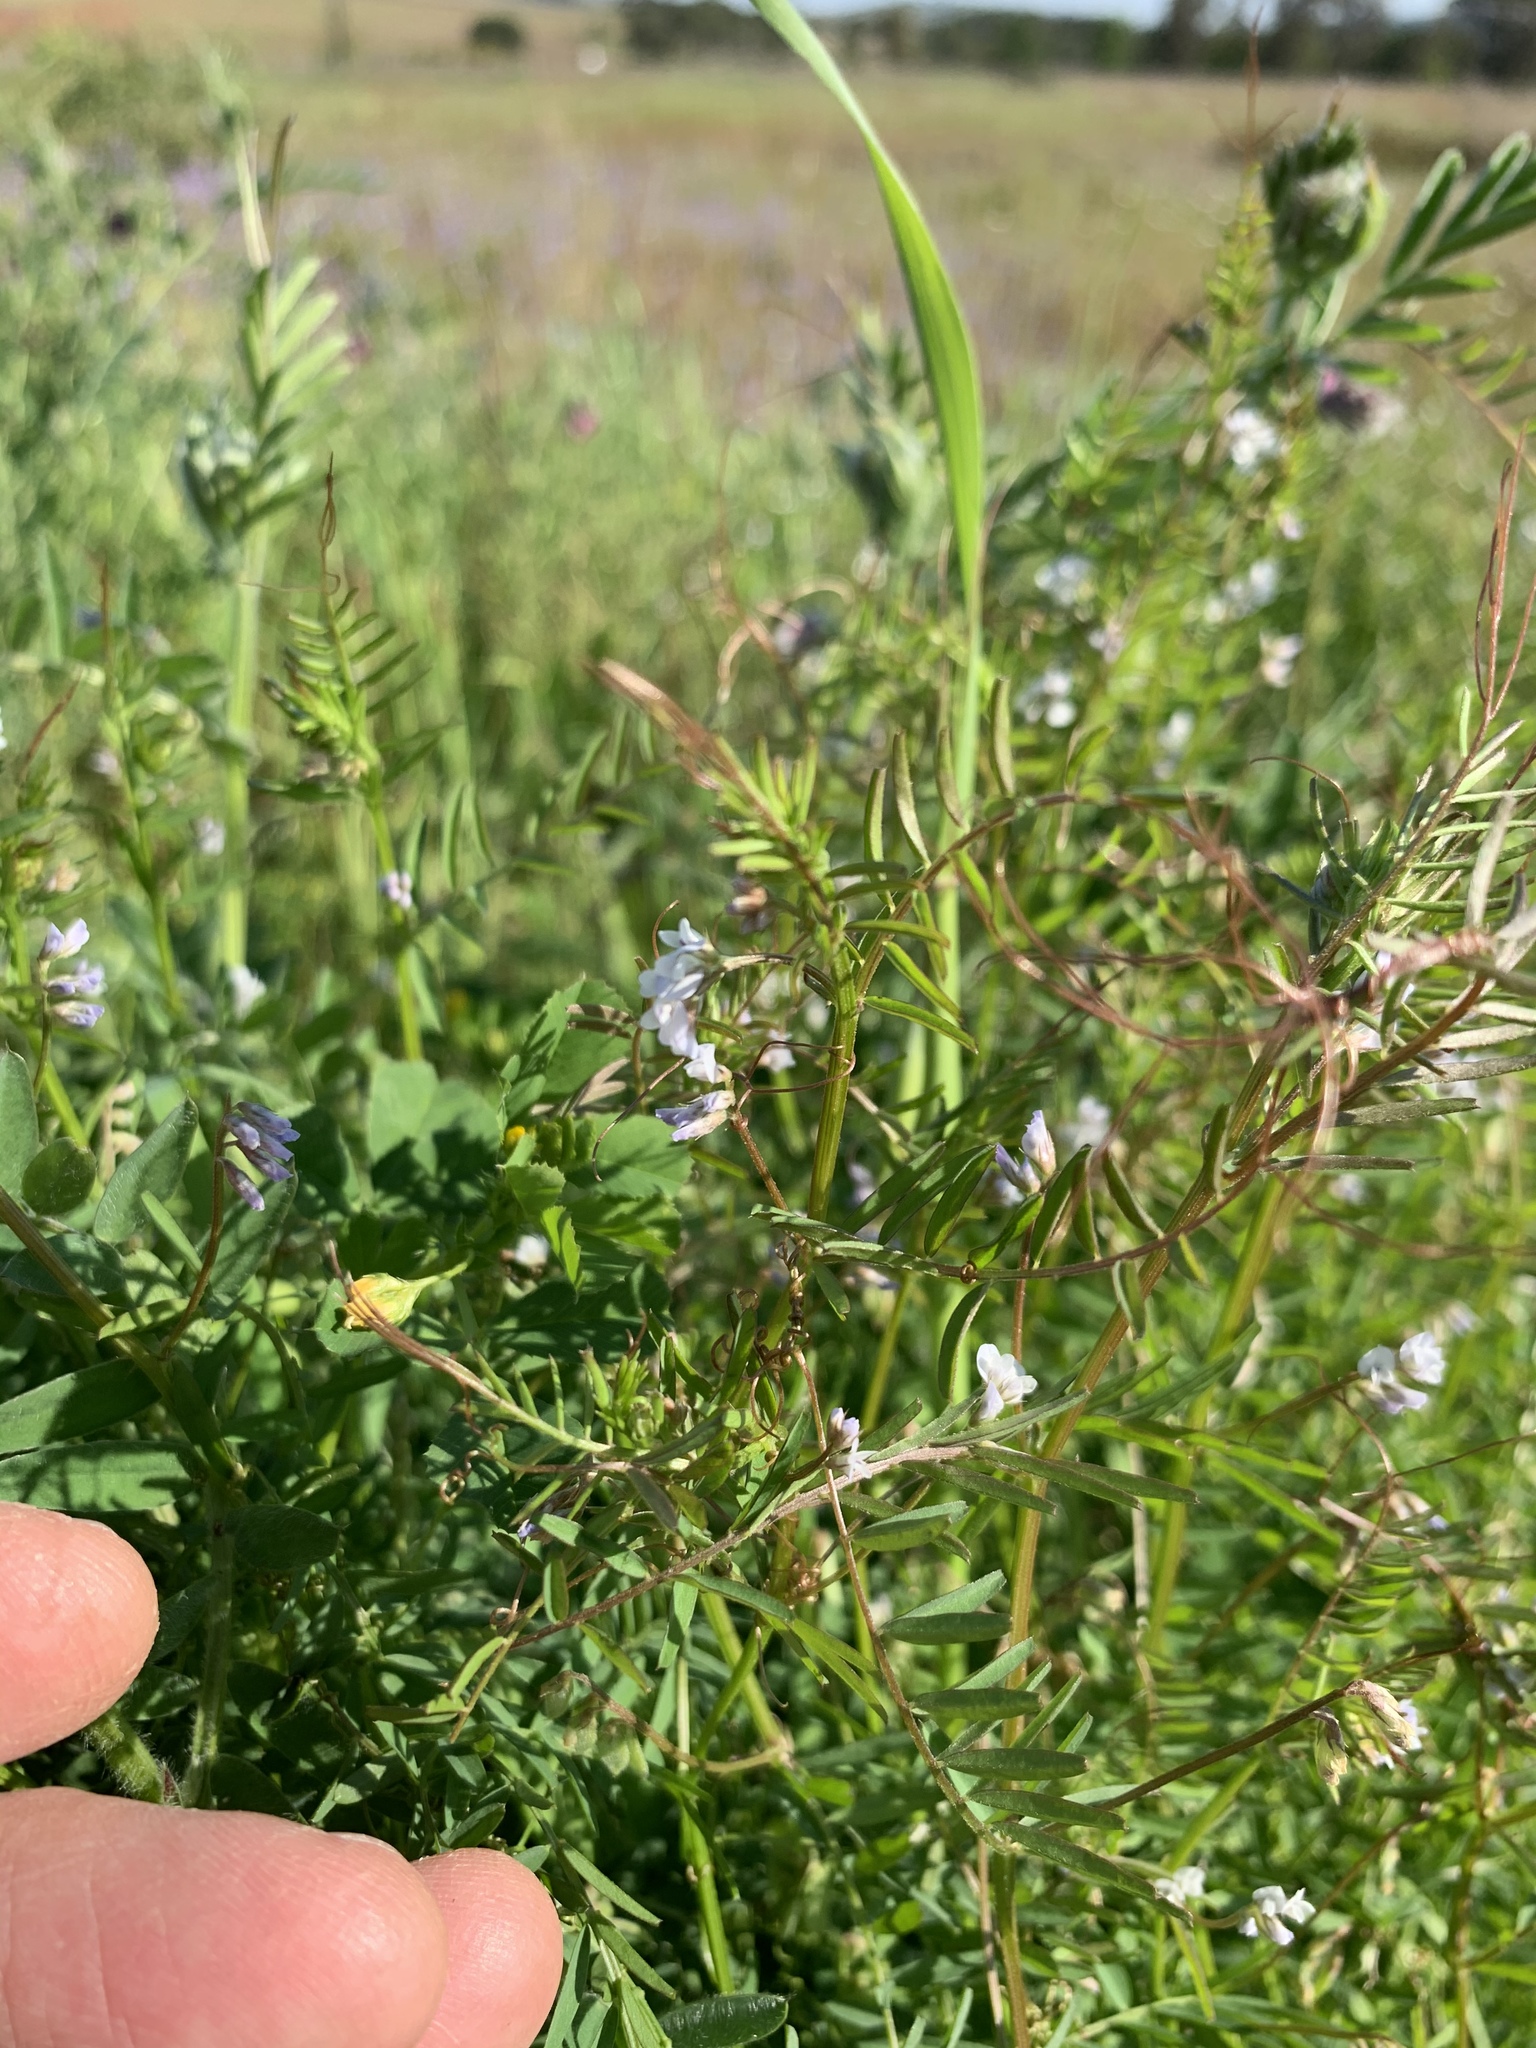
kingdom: Plantae
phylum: Tracheophyta
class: Magnoliopsida
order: Fabales
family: Fabaceae
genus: Vicia
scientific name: Vicia hirsuta
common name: Tiny vetch
